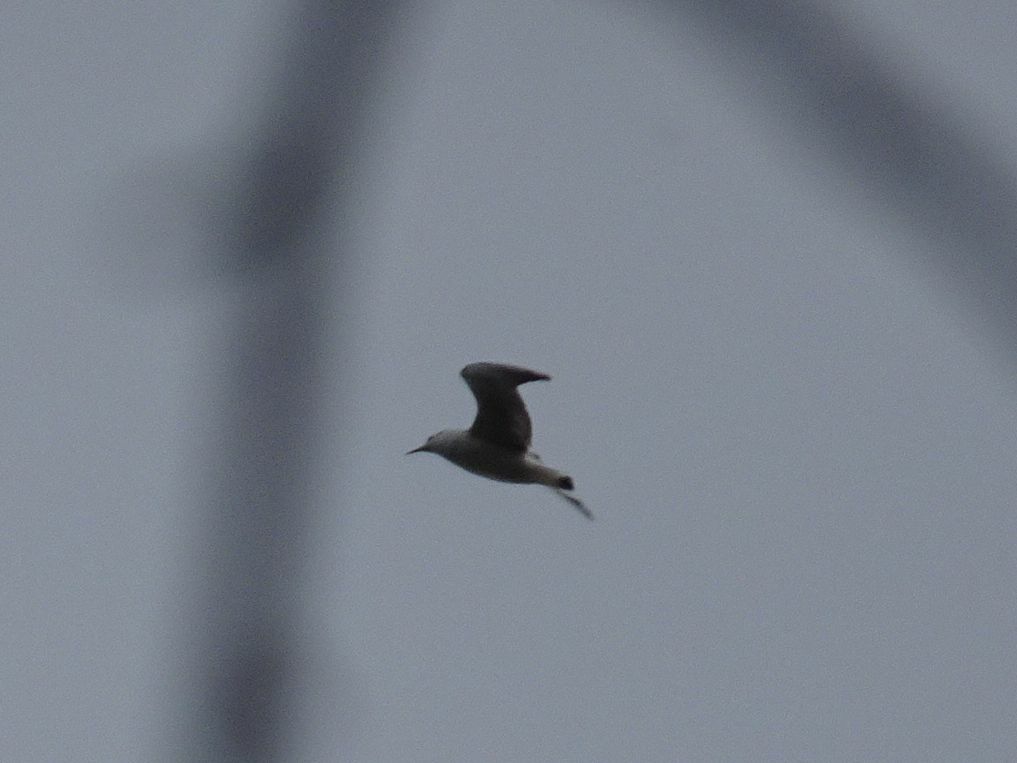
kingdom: Animalia
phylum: Chordata
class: Aves
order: Charadriiformes
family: Laridae
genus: Chroicocephalus
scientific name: Chroicocephalus ridibundus
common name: Black-headed gull
